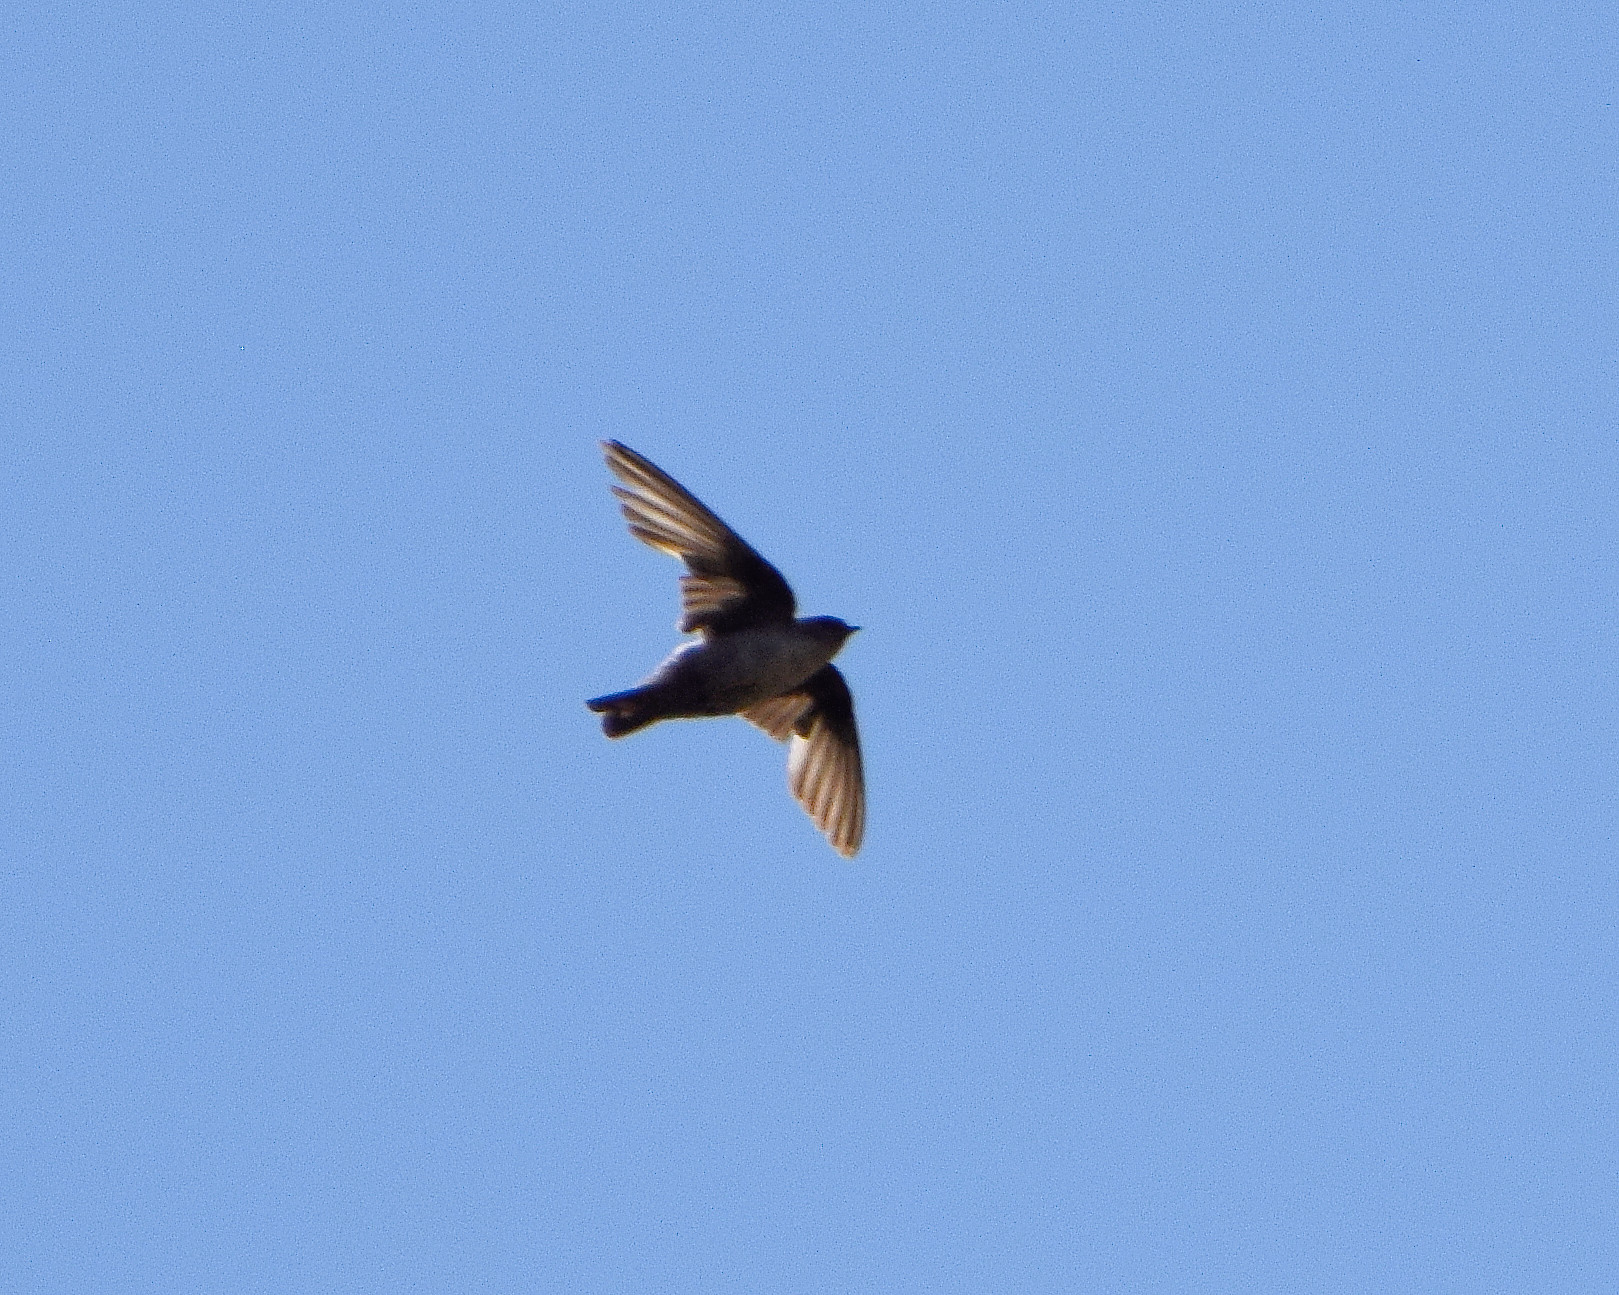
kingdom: Animalia
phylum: Chordata
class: Aves
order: Passeriformes
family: Hirundinidae
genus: Ptyonoprogne
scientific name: Ptyonoprogne rupestris
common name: Eurasian crag martin
